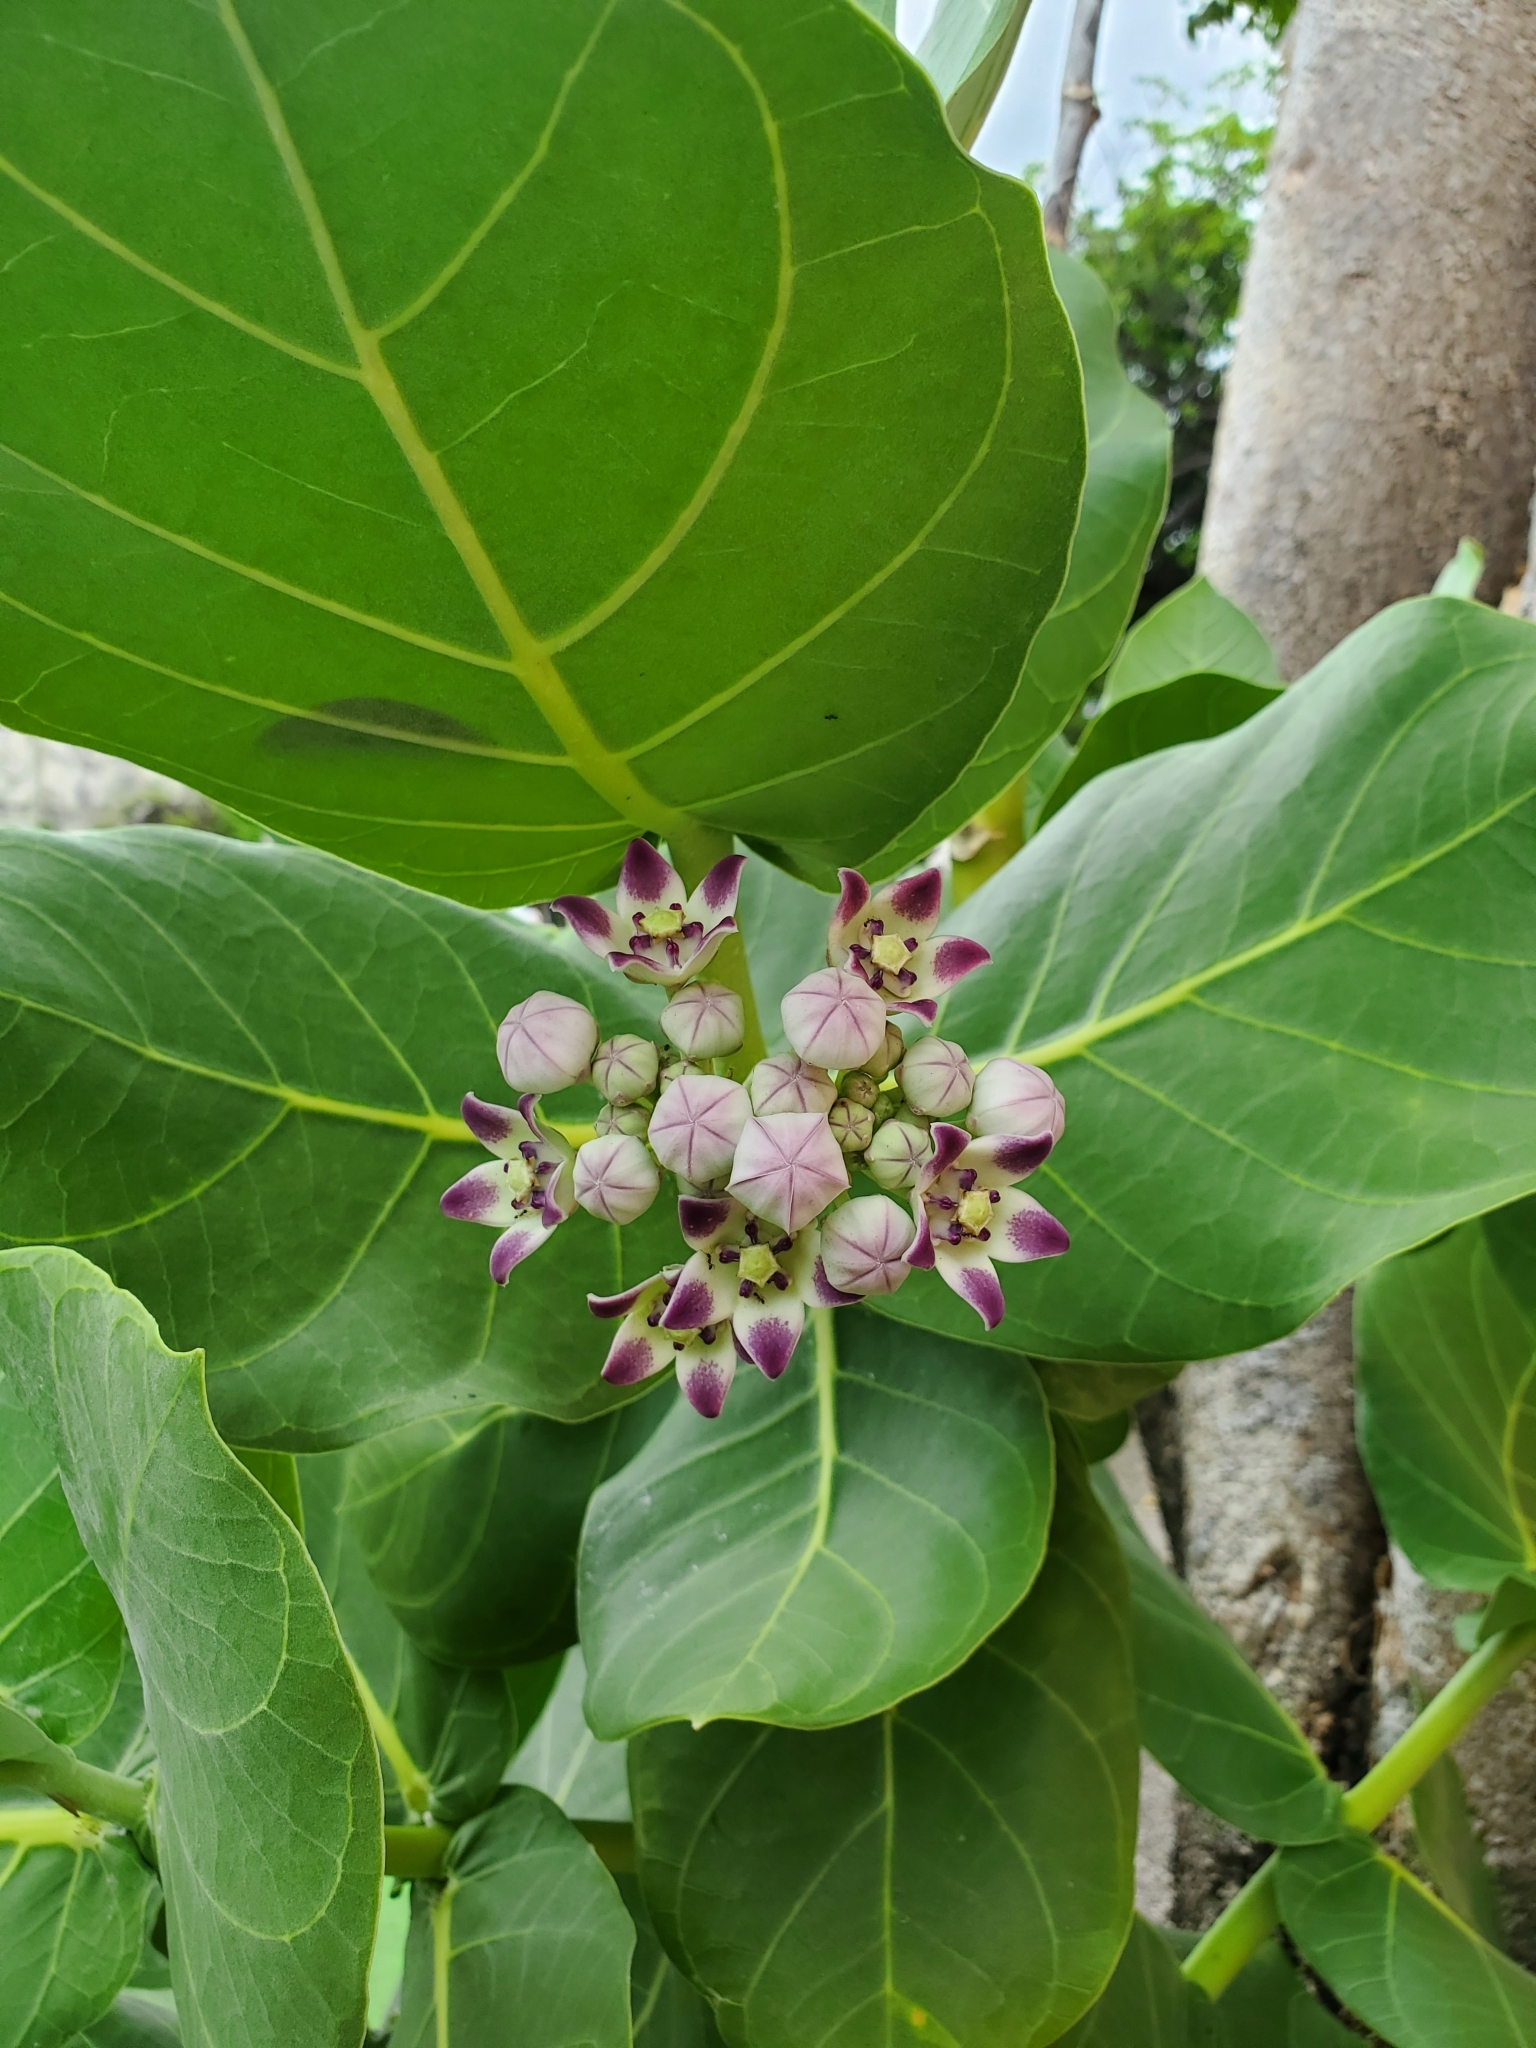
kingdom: Plantae
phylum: Tracheophyta
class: Magnoliopsida
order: Gentianales
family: Apocynaceae
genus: Calotropis
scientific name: Calotropis procera
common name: Roostertree
